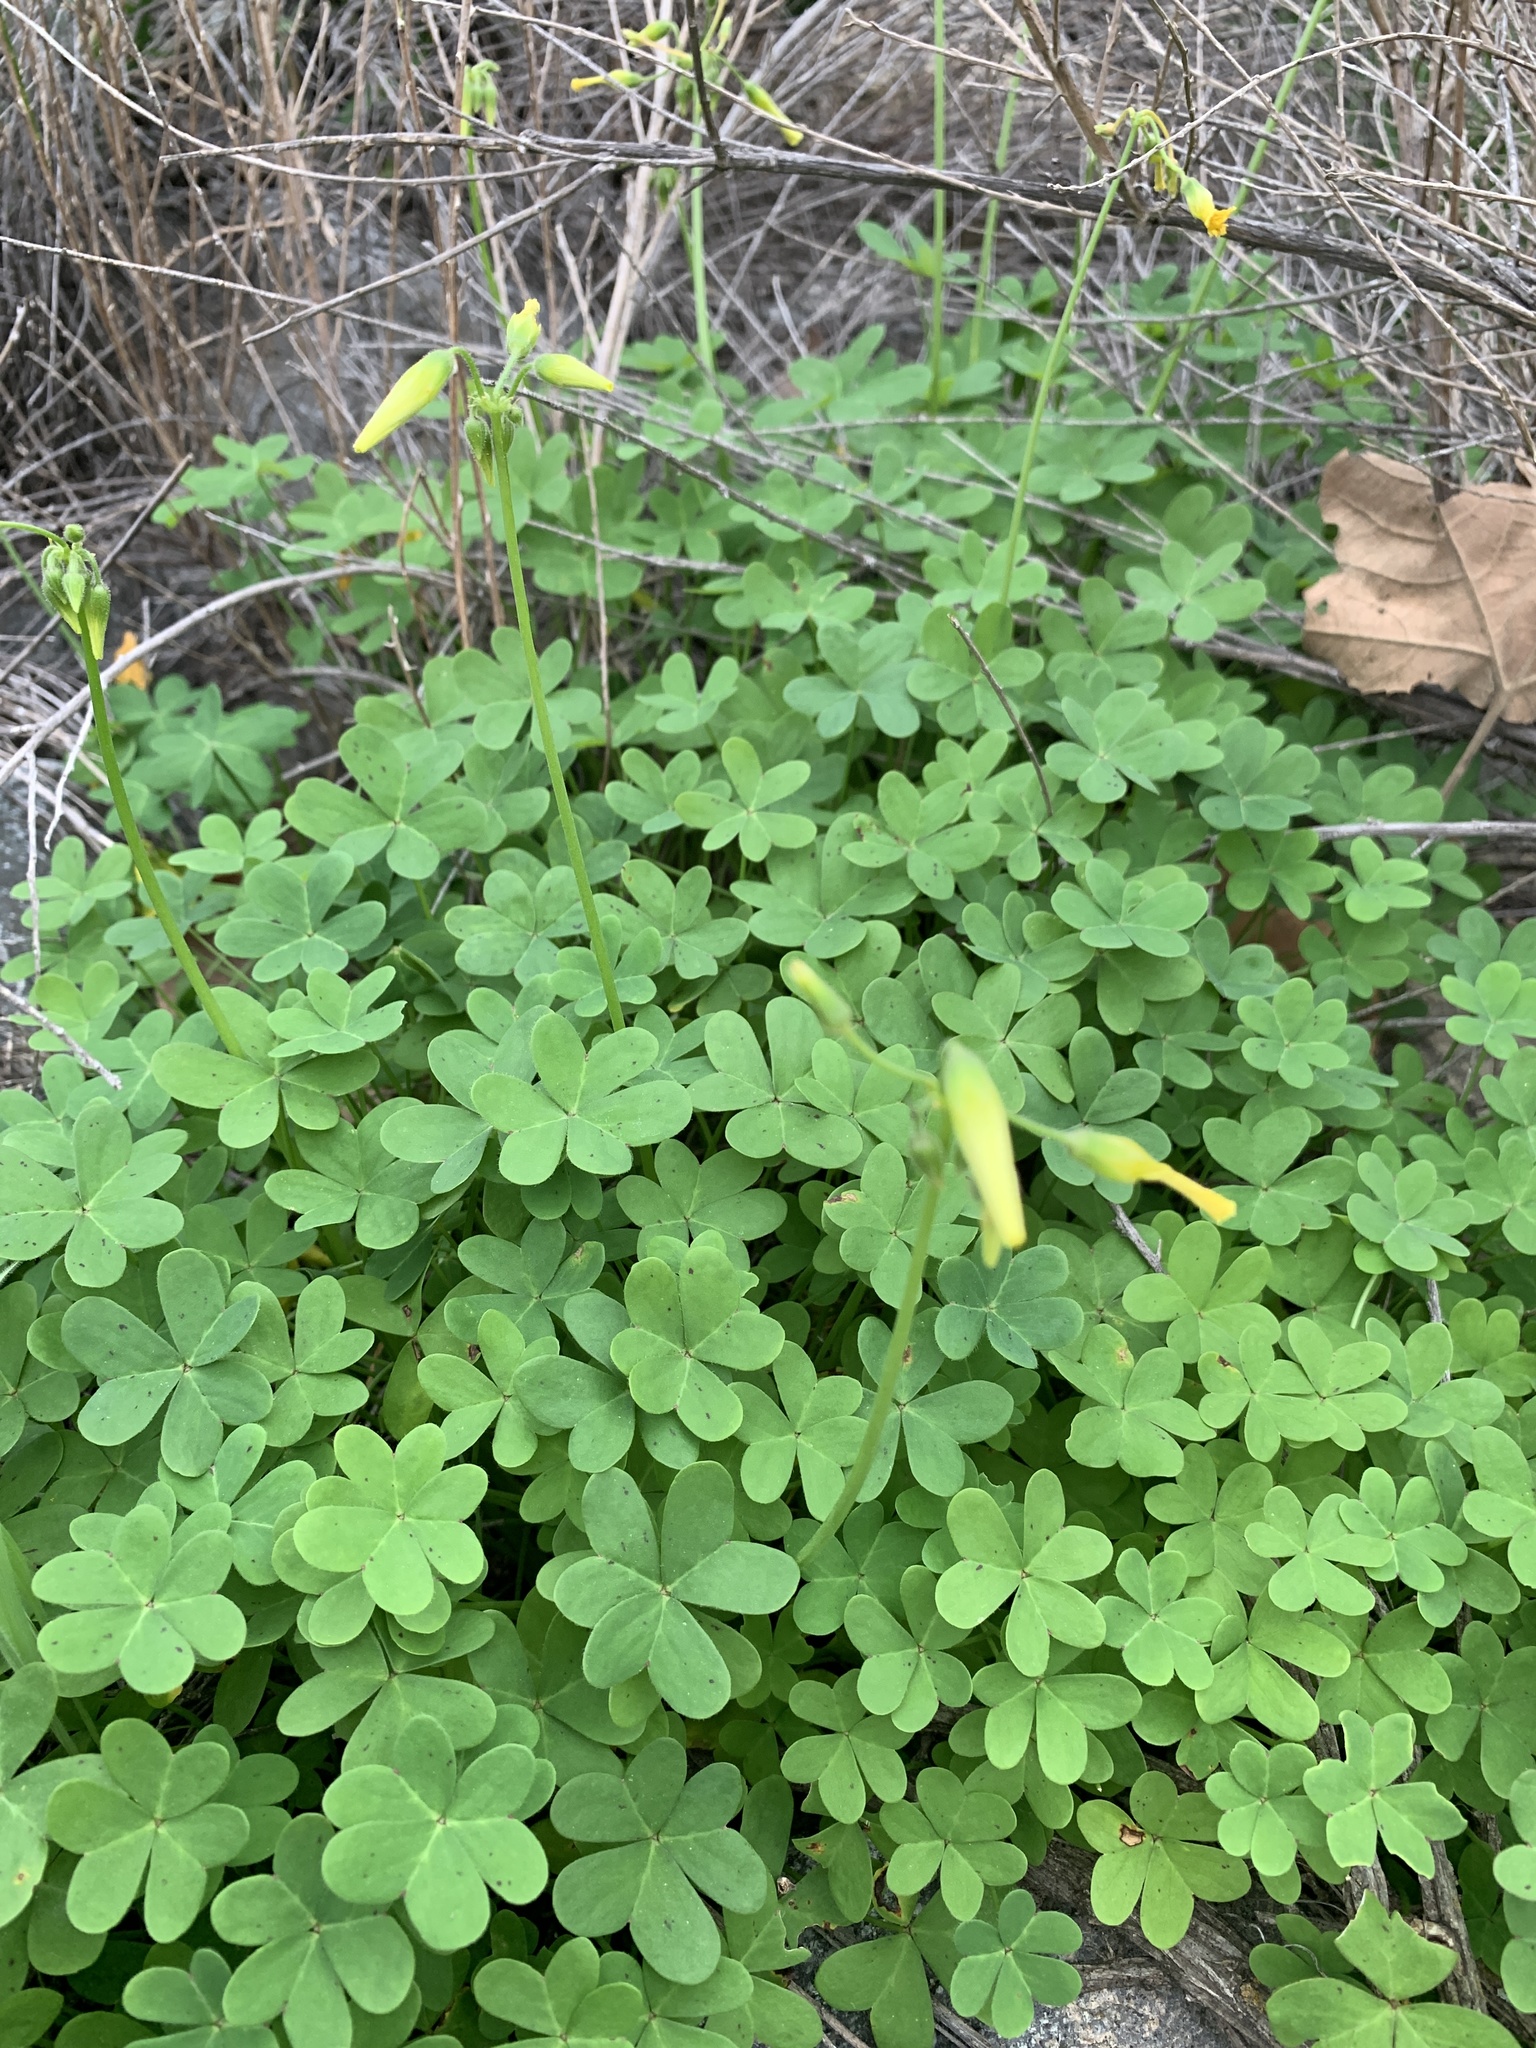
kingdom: Plantae
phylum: Tracheophyta
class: Magnoliopsida
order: Oxalidales
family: Oxalidaceae
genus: Oxalis
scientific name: Oxalis pes-caprae
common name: Bermuda-buttercup
